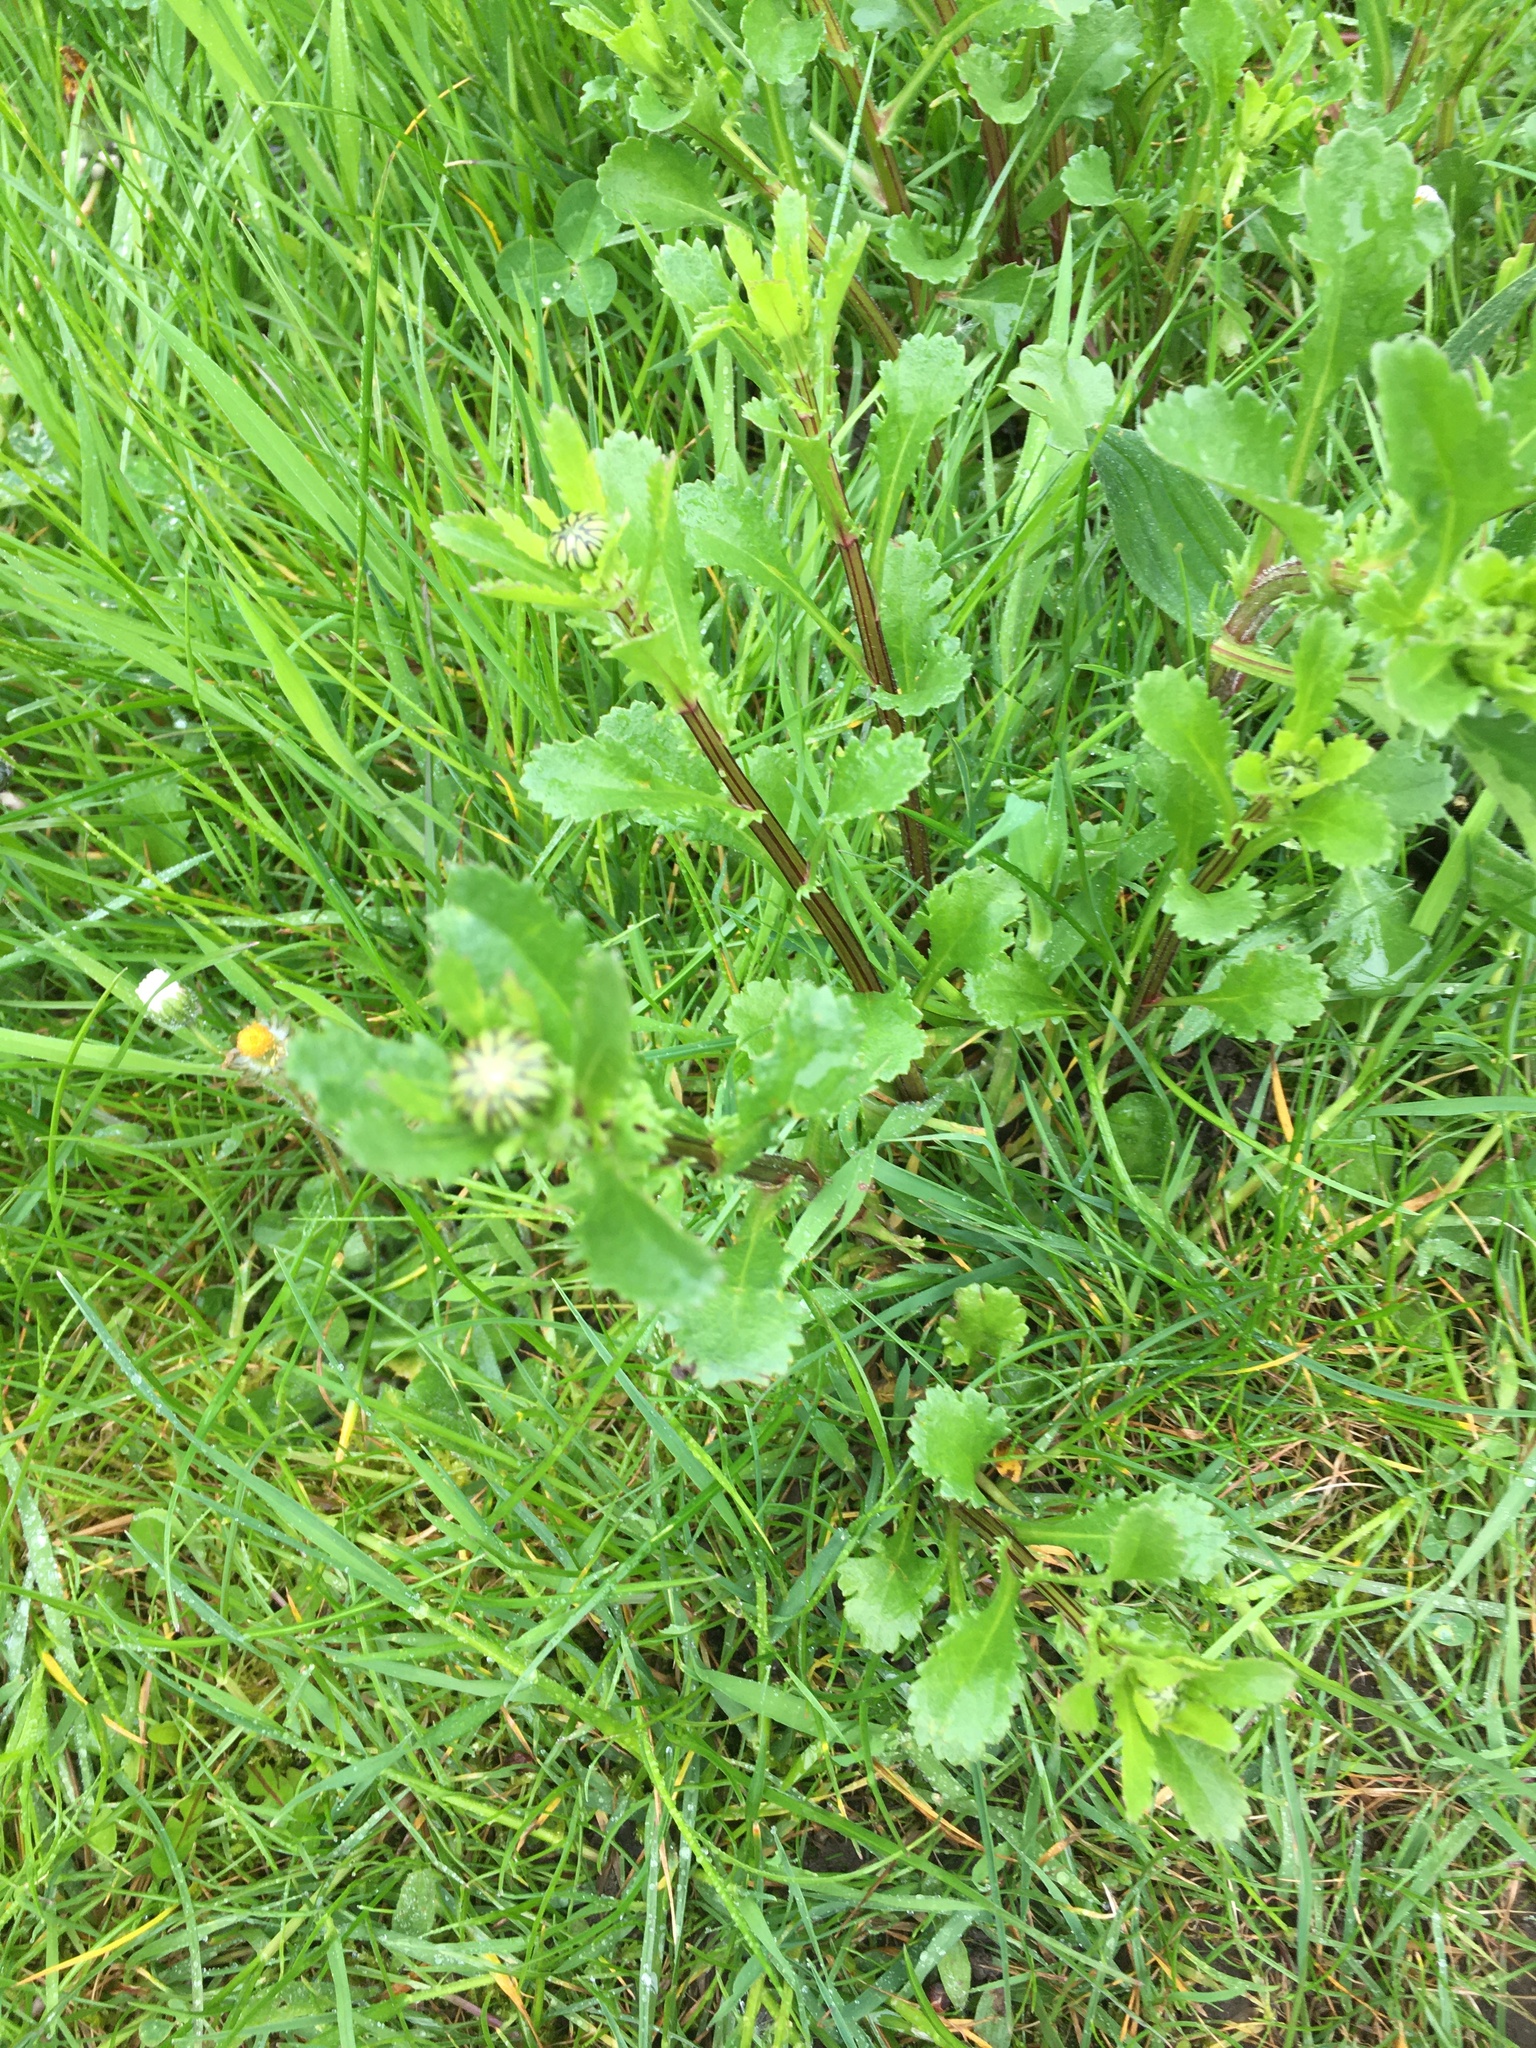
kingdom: Plantae
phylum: Tracheophyta
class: Magnoliopsida
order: Asterales
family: Asteraceae
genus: Leucanthemum
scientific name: Leucanthemum vulgare
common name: Oxeye daisy
